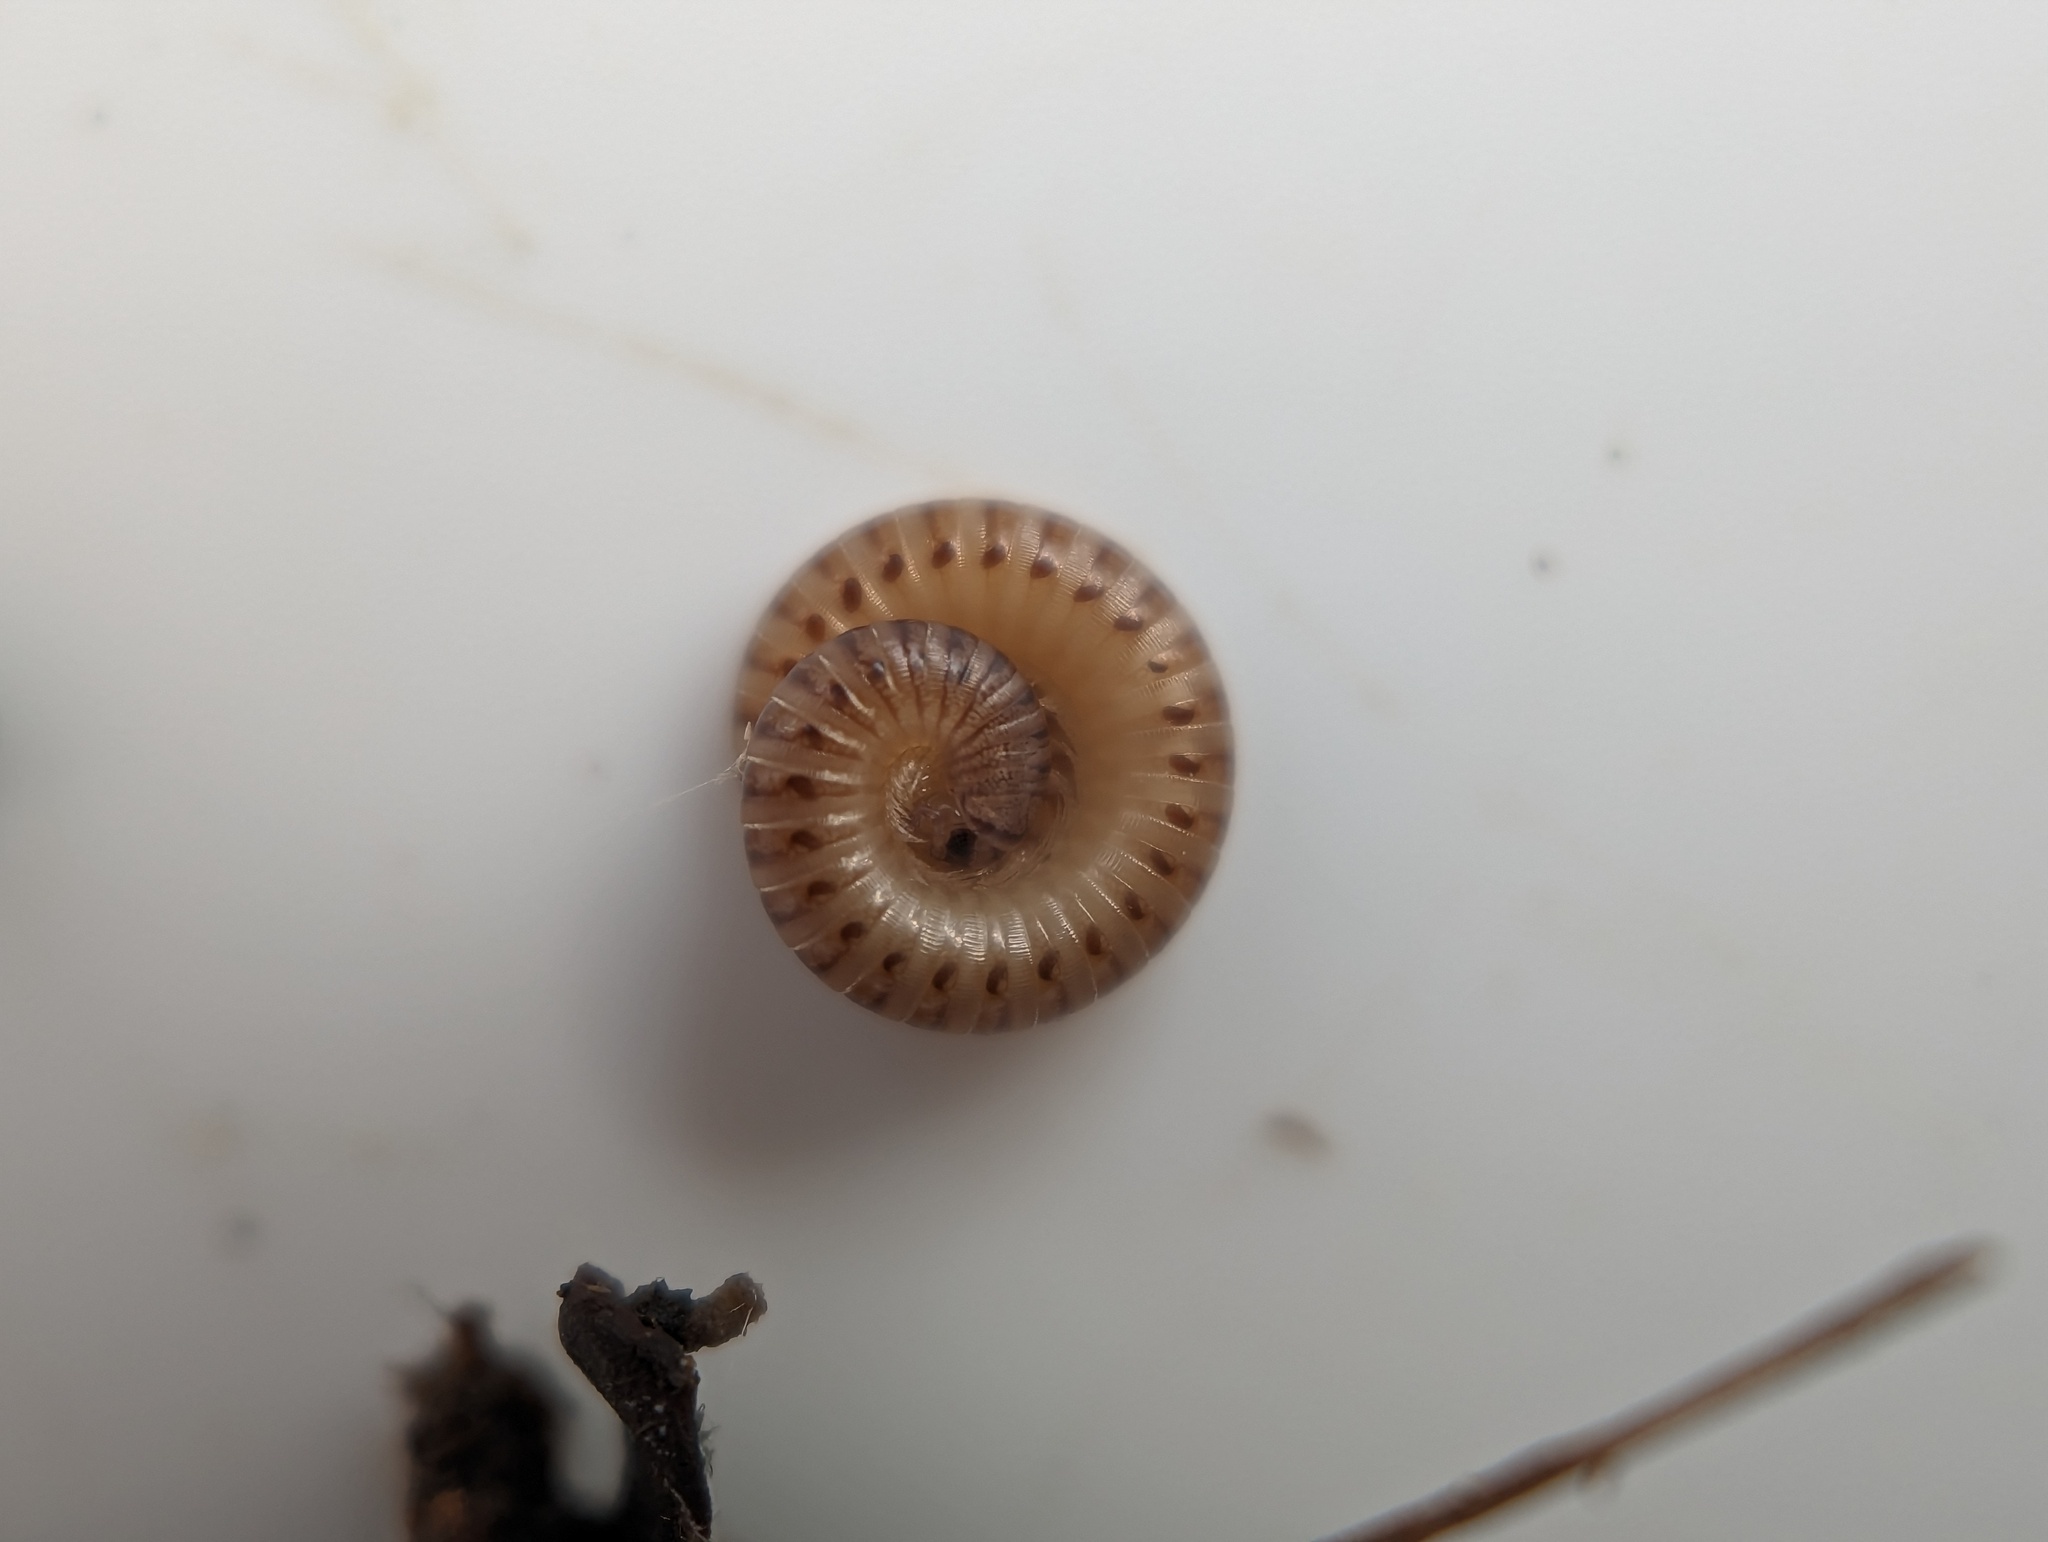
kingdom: Animalia
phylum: Arthropoda
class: Diplopoda
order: Julida
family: Julidae
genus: Cylindroiulus
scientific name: Cylindroiulus punctatus
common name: Blunt-tailed millipede
